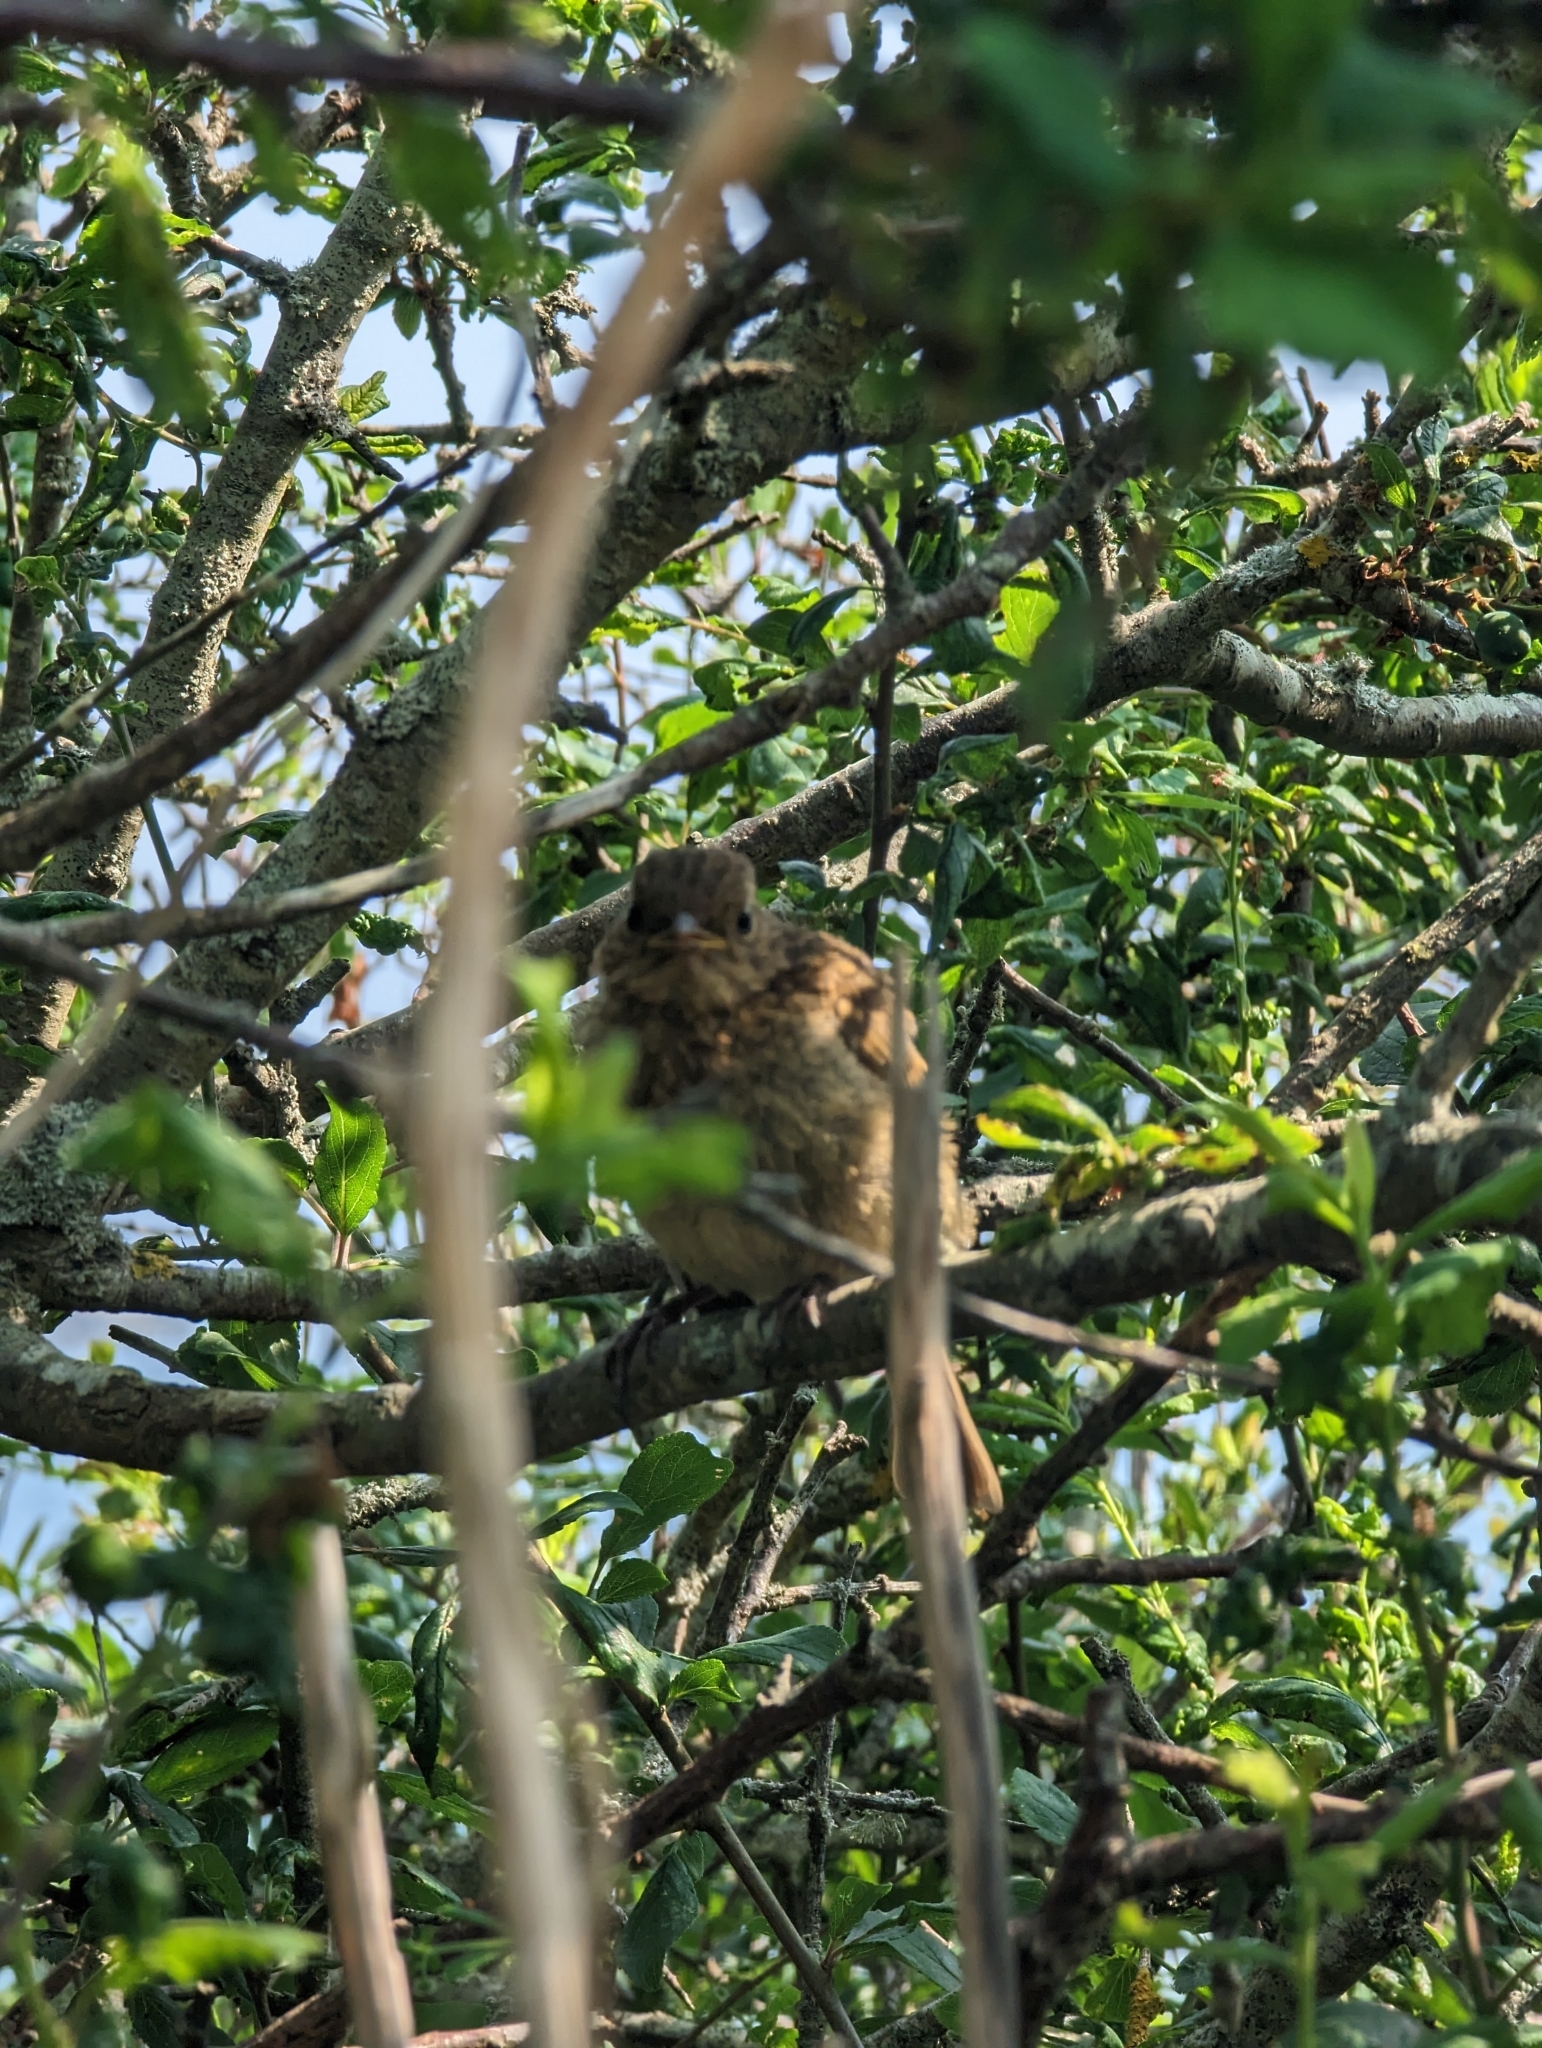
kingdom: Animalia
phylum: Chordata
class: Aves
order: Passeriformes
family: Muscicapidae
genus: Erithacus
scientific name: Erithacus rubecula
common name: European robin
